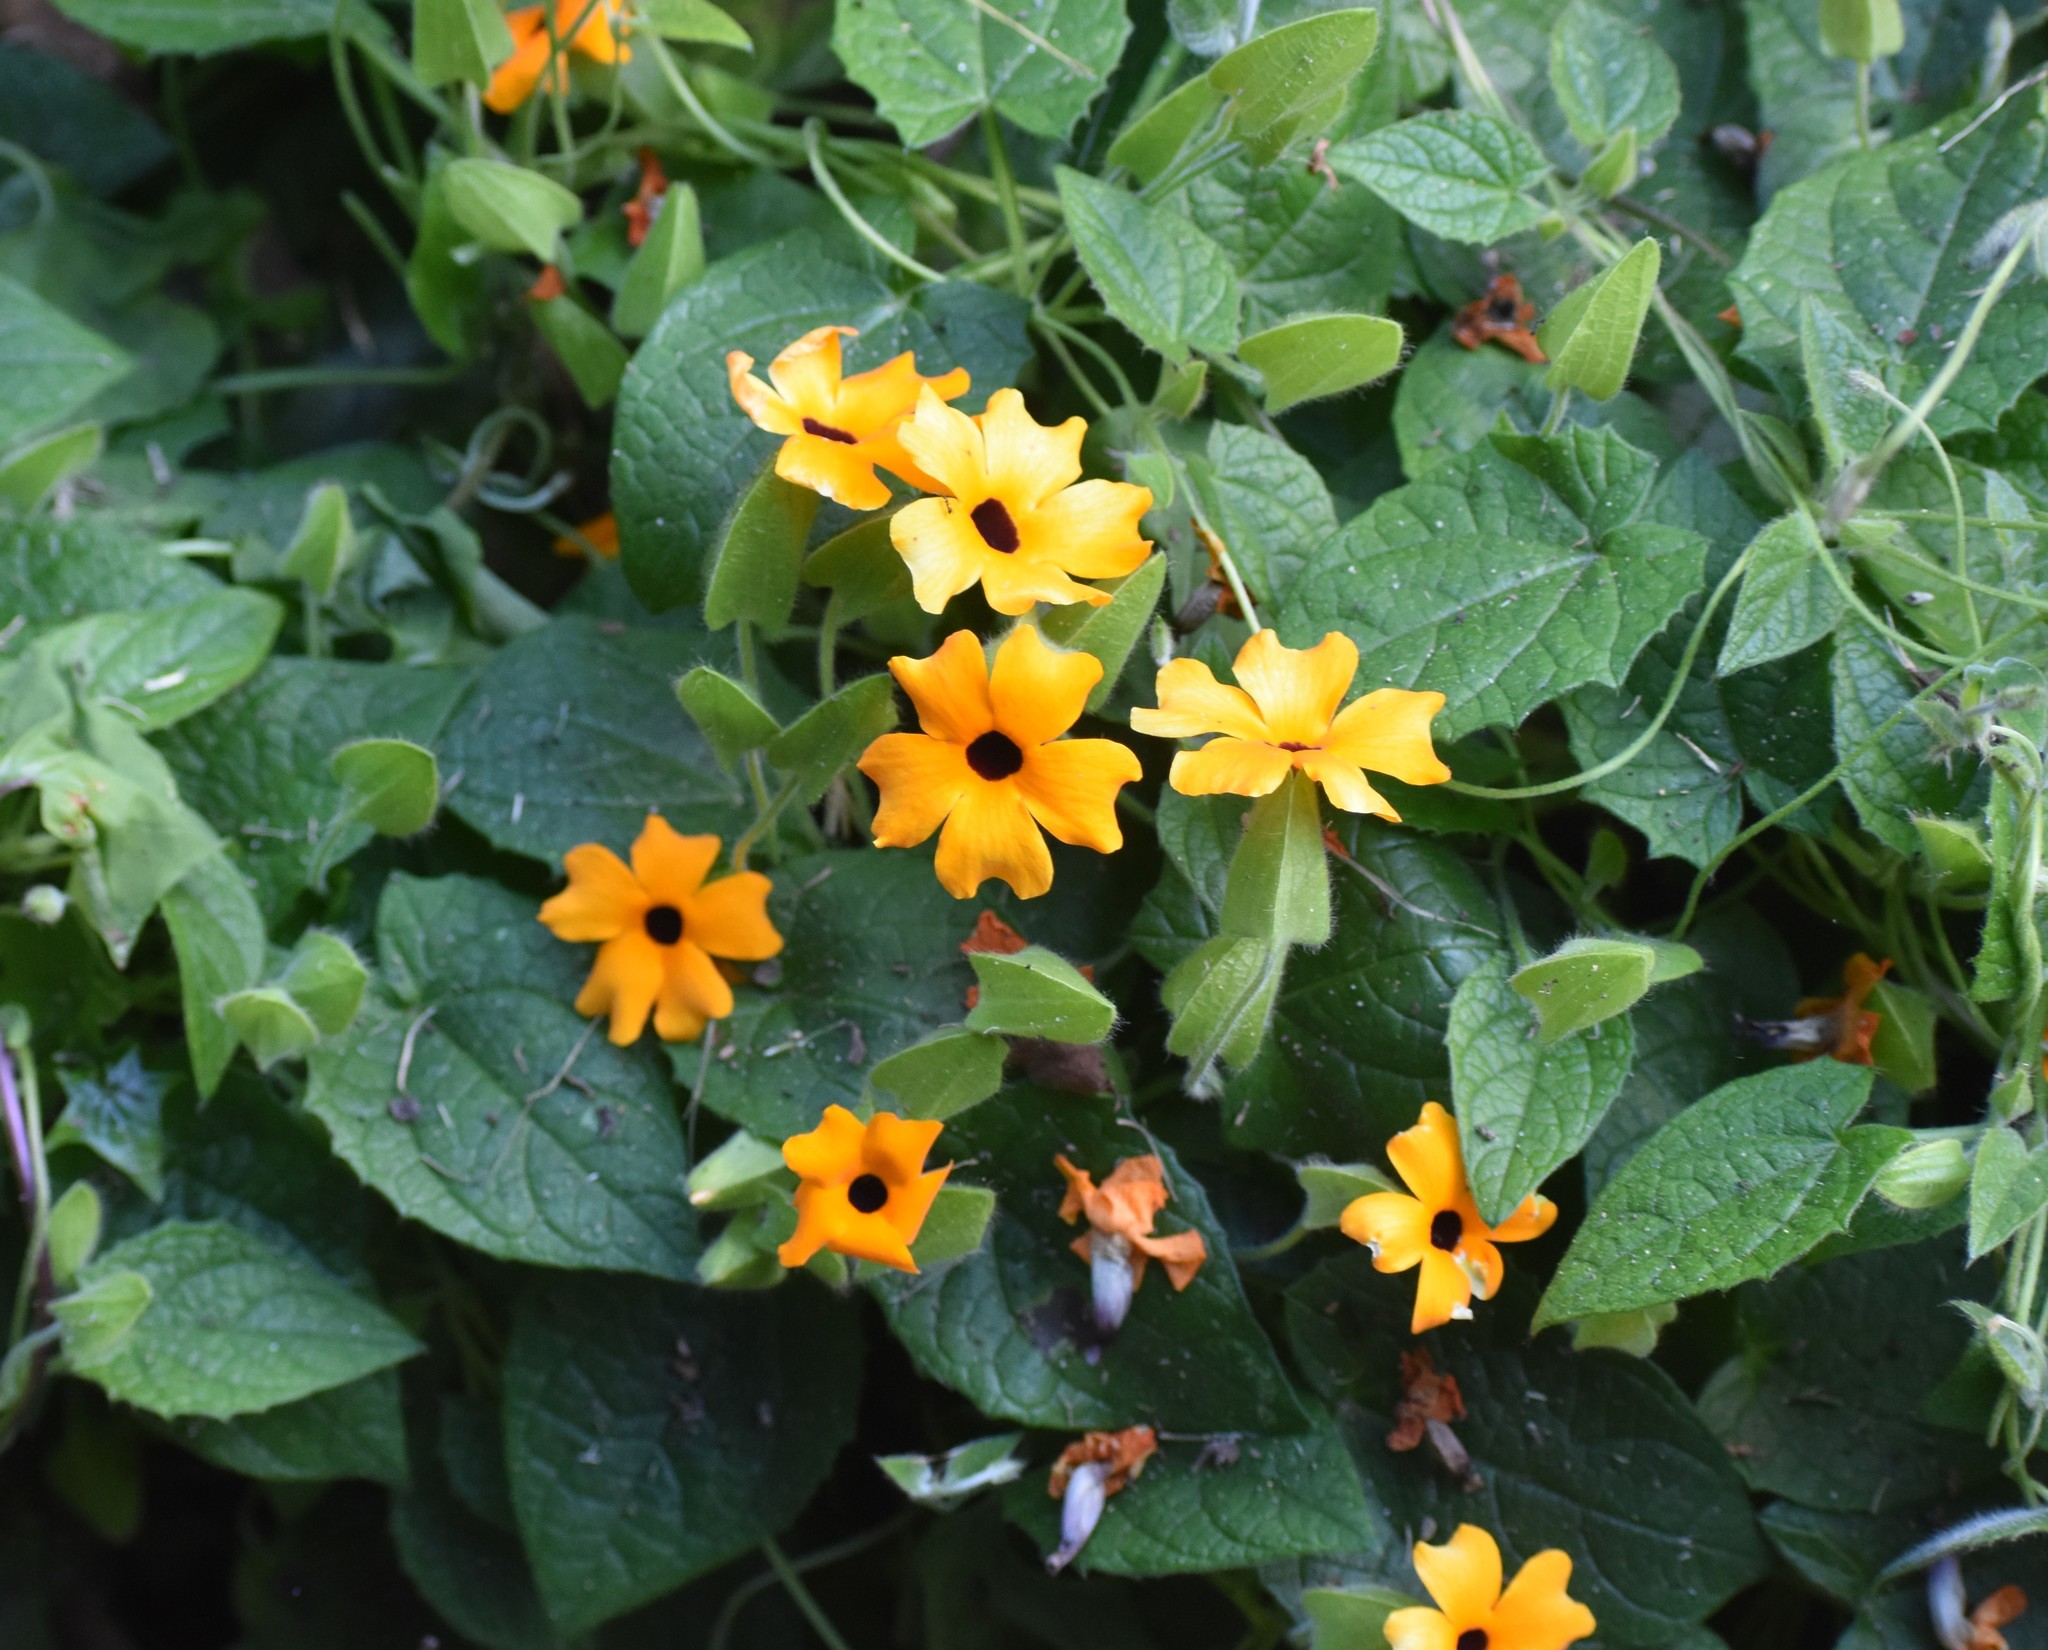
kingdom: Plantae
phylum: Tracheophyta
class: Magnoliopsida
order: Lamiales
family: Acanthaceae
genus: Thunbergia
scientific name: Thunbergia alata
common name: Blackeyed susan vine
